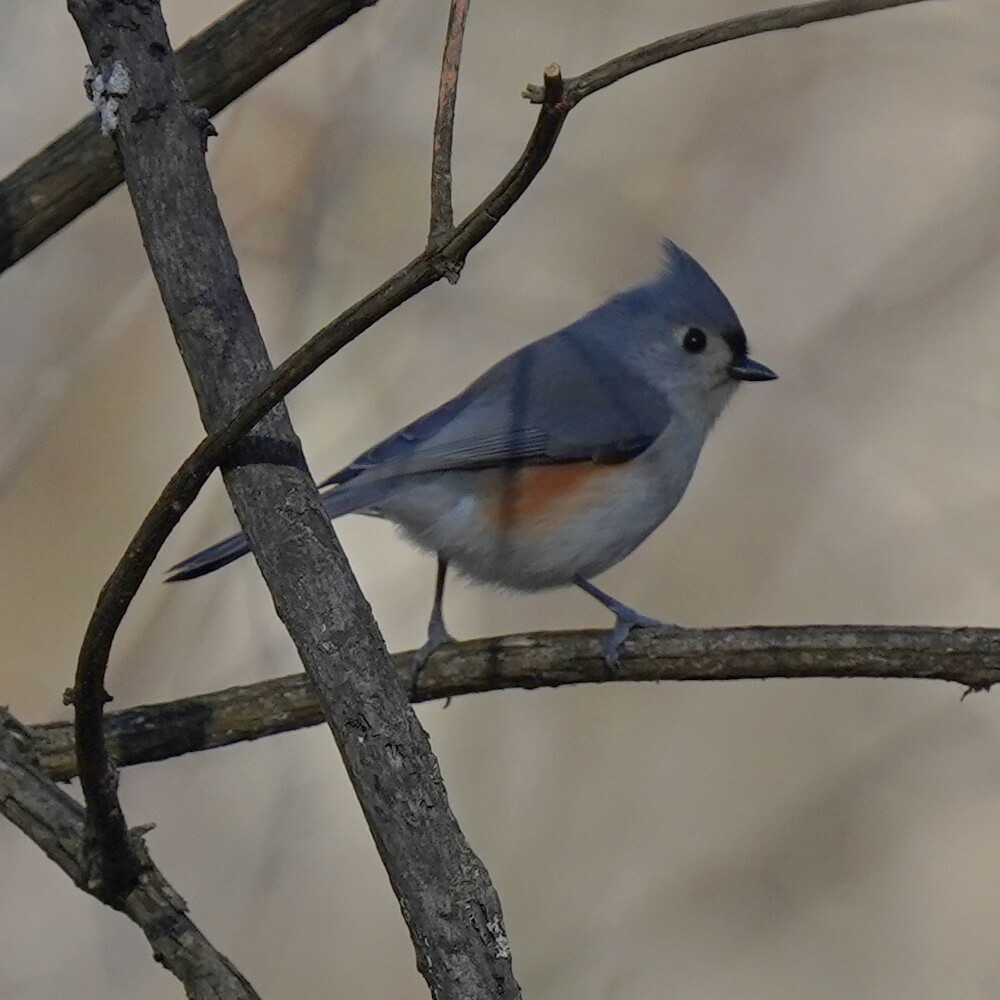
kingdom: Animalia
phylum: Chordata
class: Aves
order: Passeriformes
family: Paridae
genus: Baeolophus
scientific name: Baeolophus bicolor
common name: Tufted titmouse
